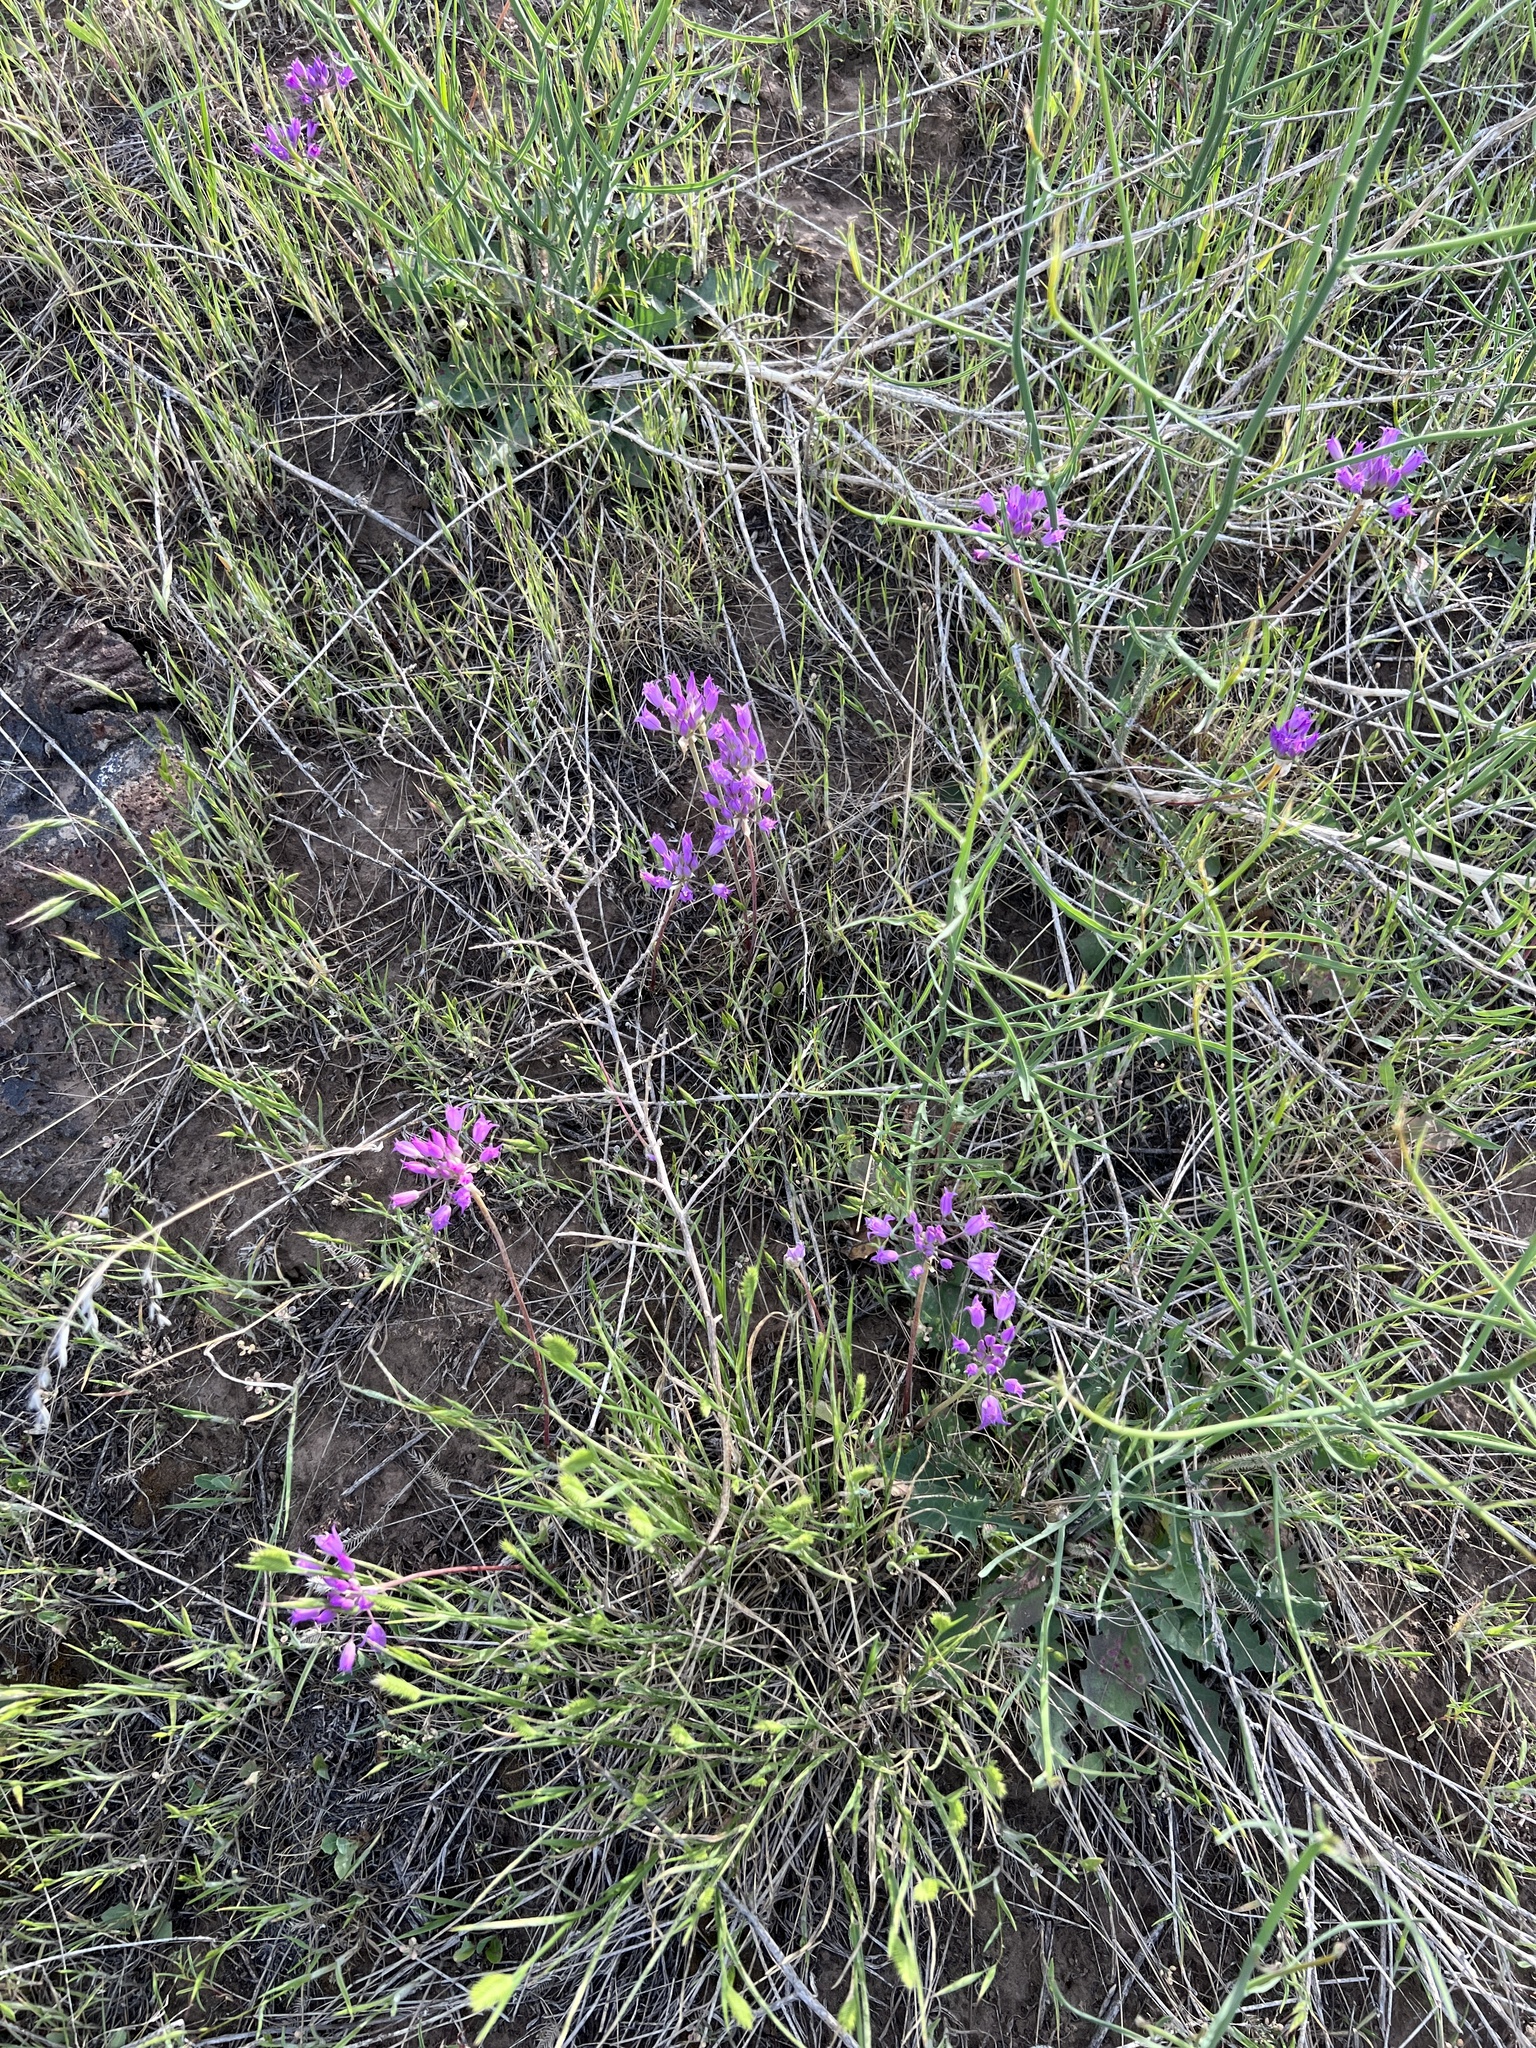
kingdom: Plantae
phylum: Tracheophyta
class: Liliopsida
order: Asparagales
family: Amaryllidaceae
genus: Allium
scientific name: Allium acuminatum
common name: Hooker's onion
